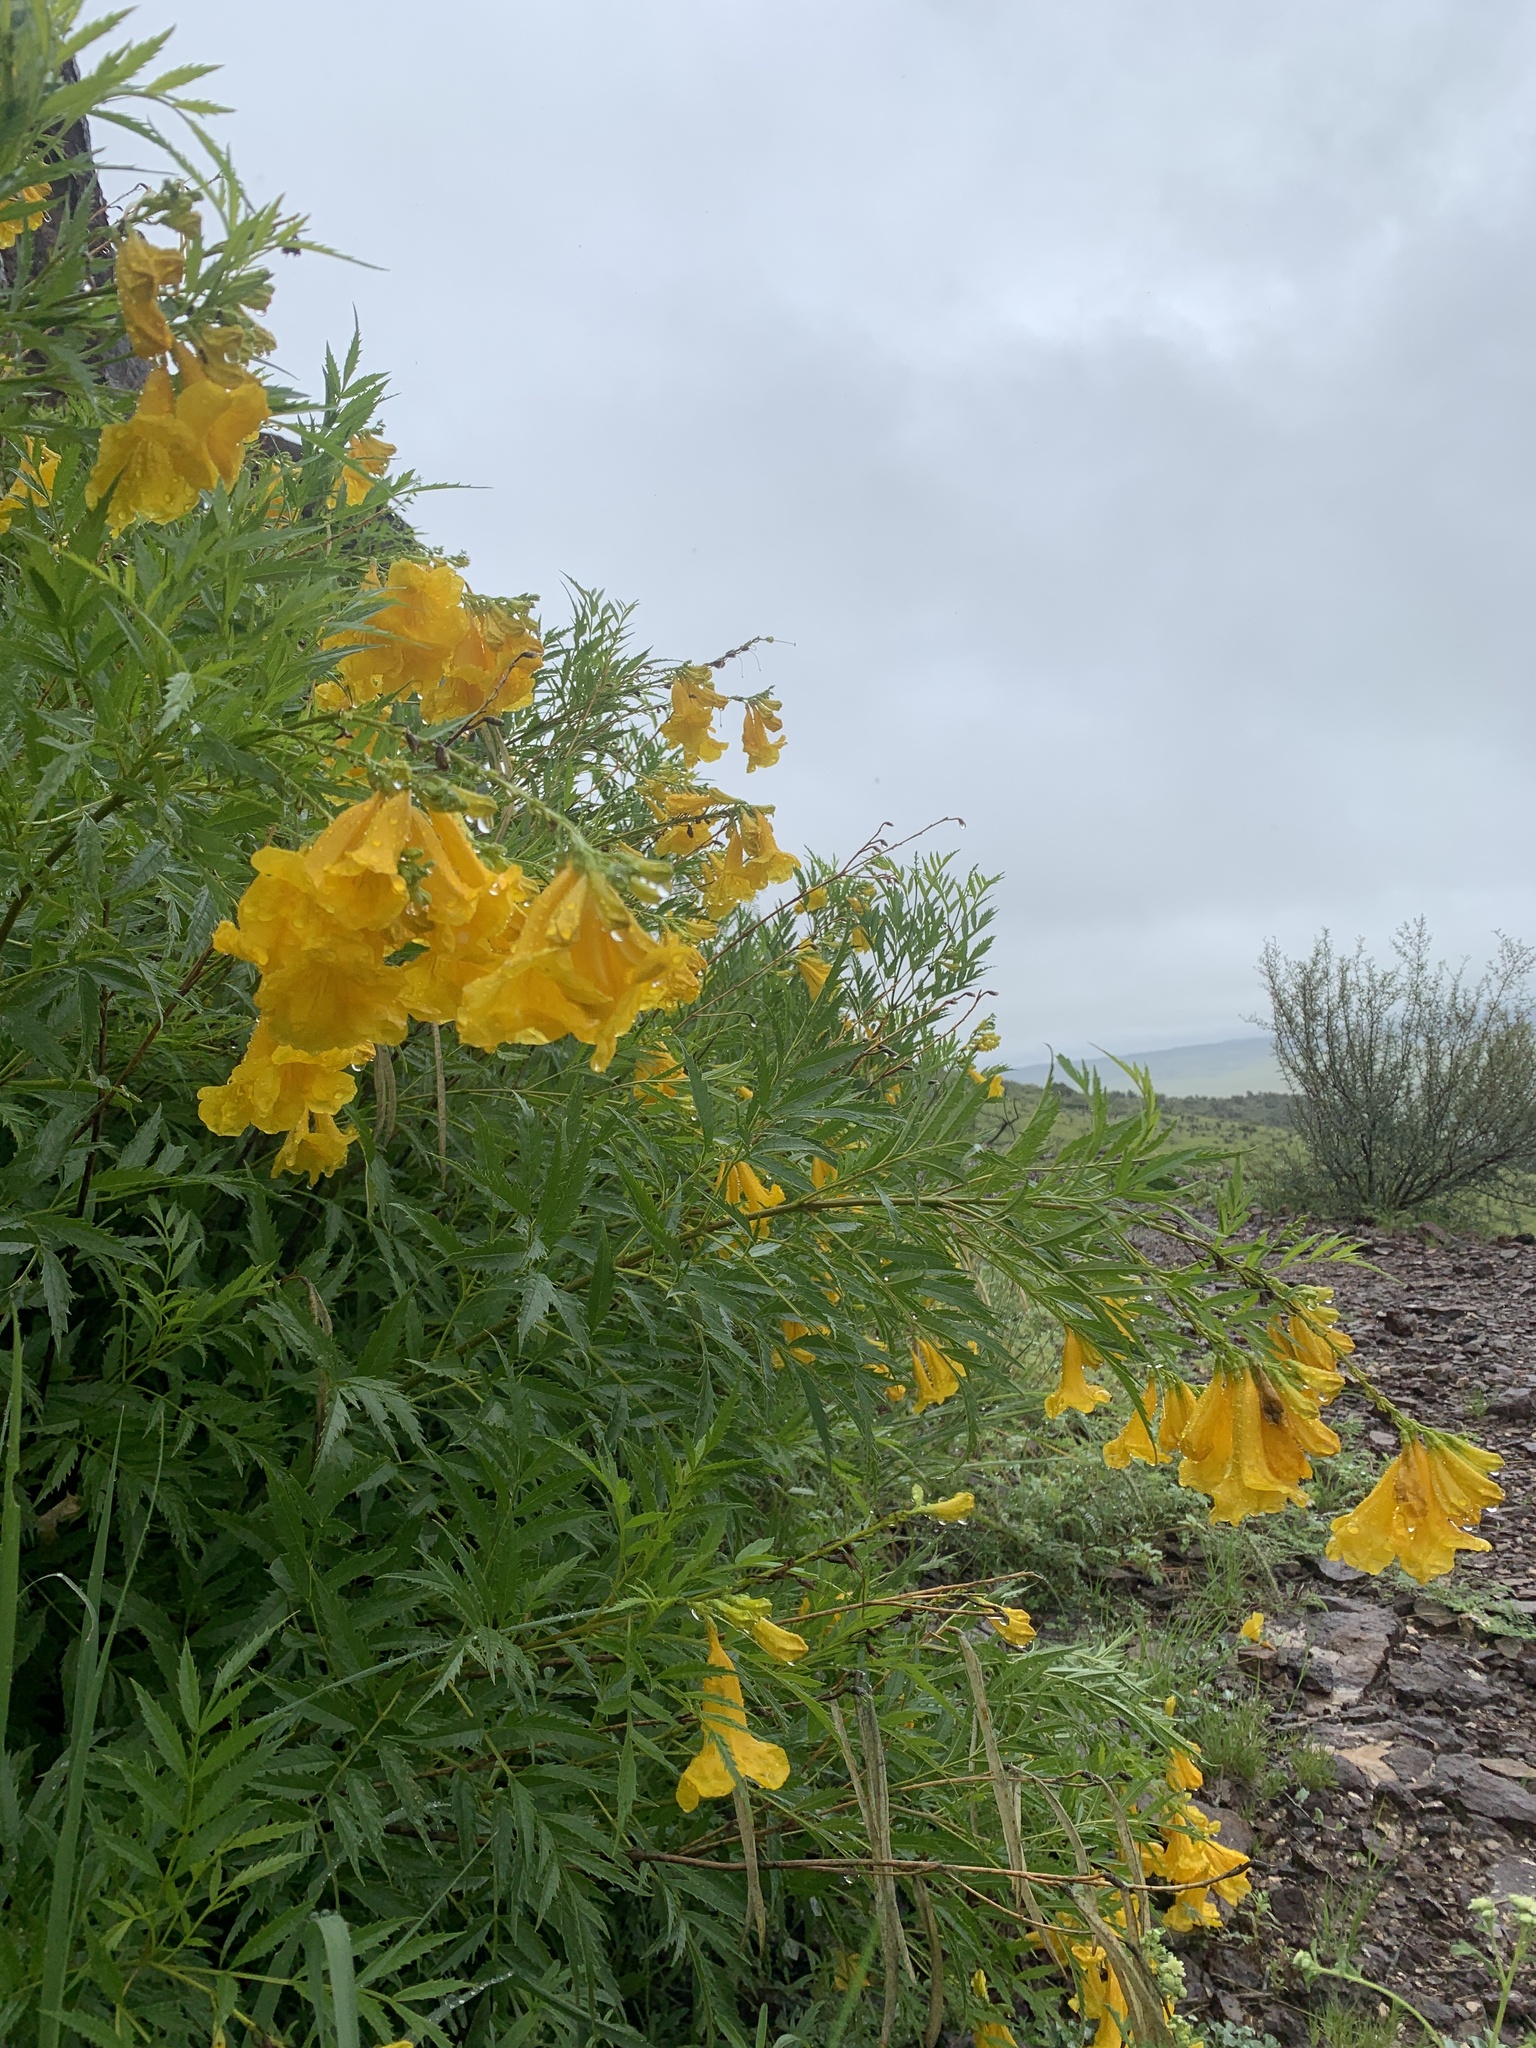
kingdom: Plantae
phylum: Tracheophyta
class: Magnoliopsida
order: Lamiales
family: Bignoniaceae
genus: Tecoma
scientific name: Tecoma stans
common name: Yellow trumpetbush
